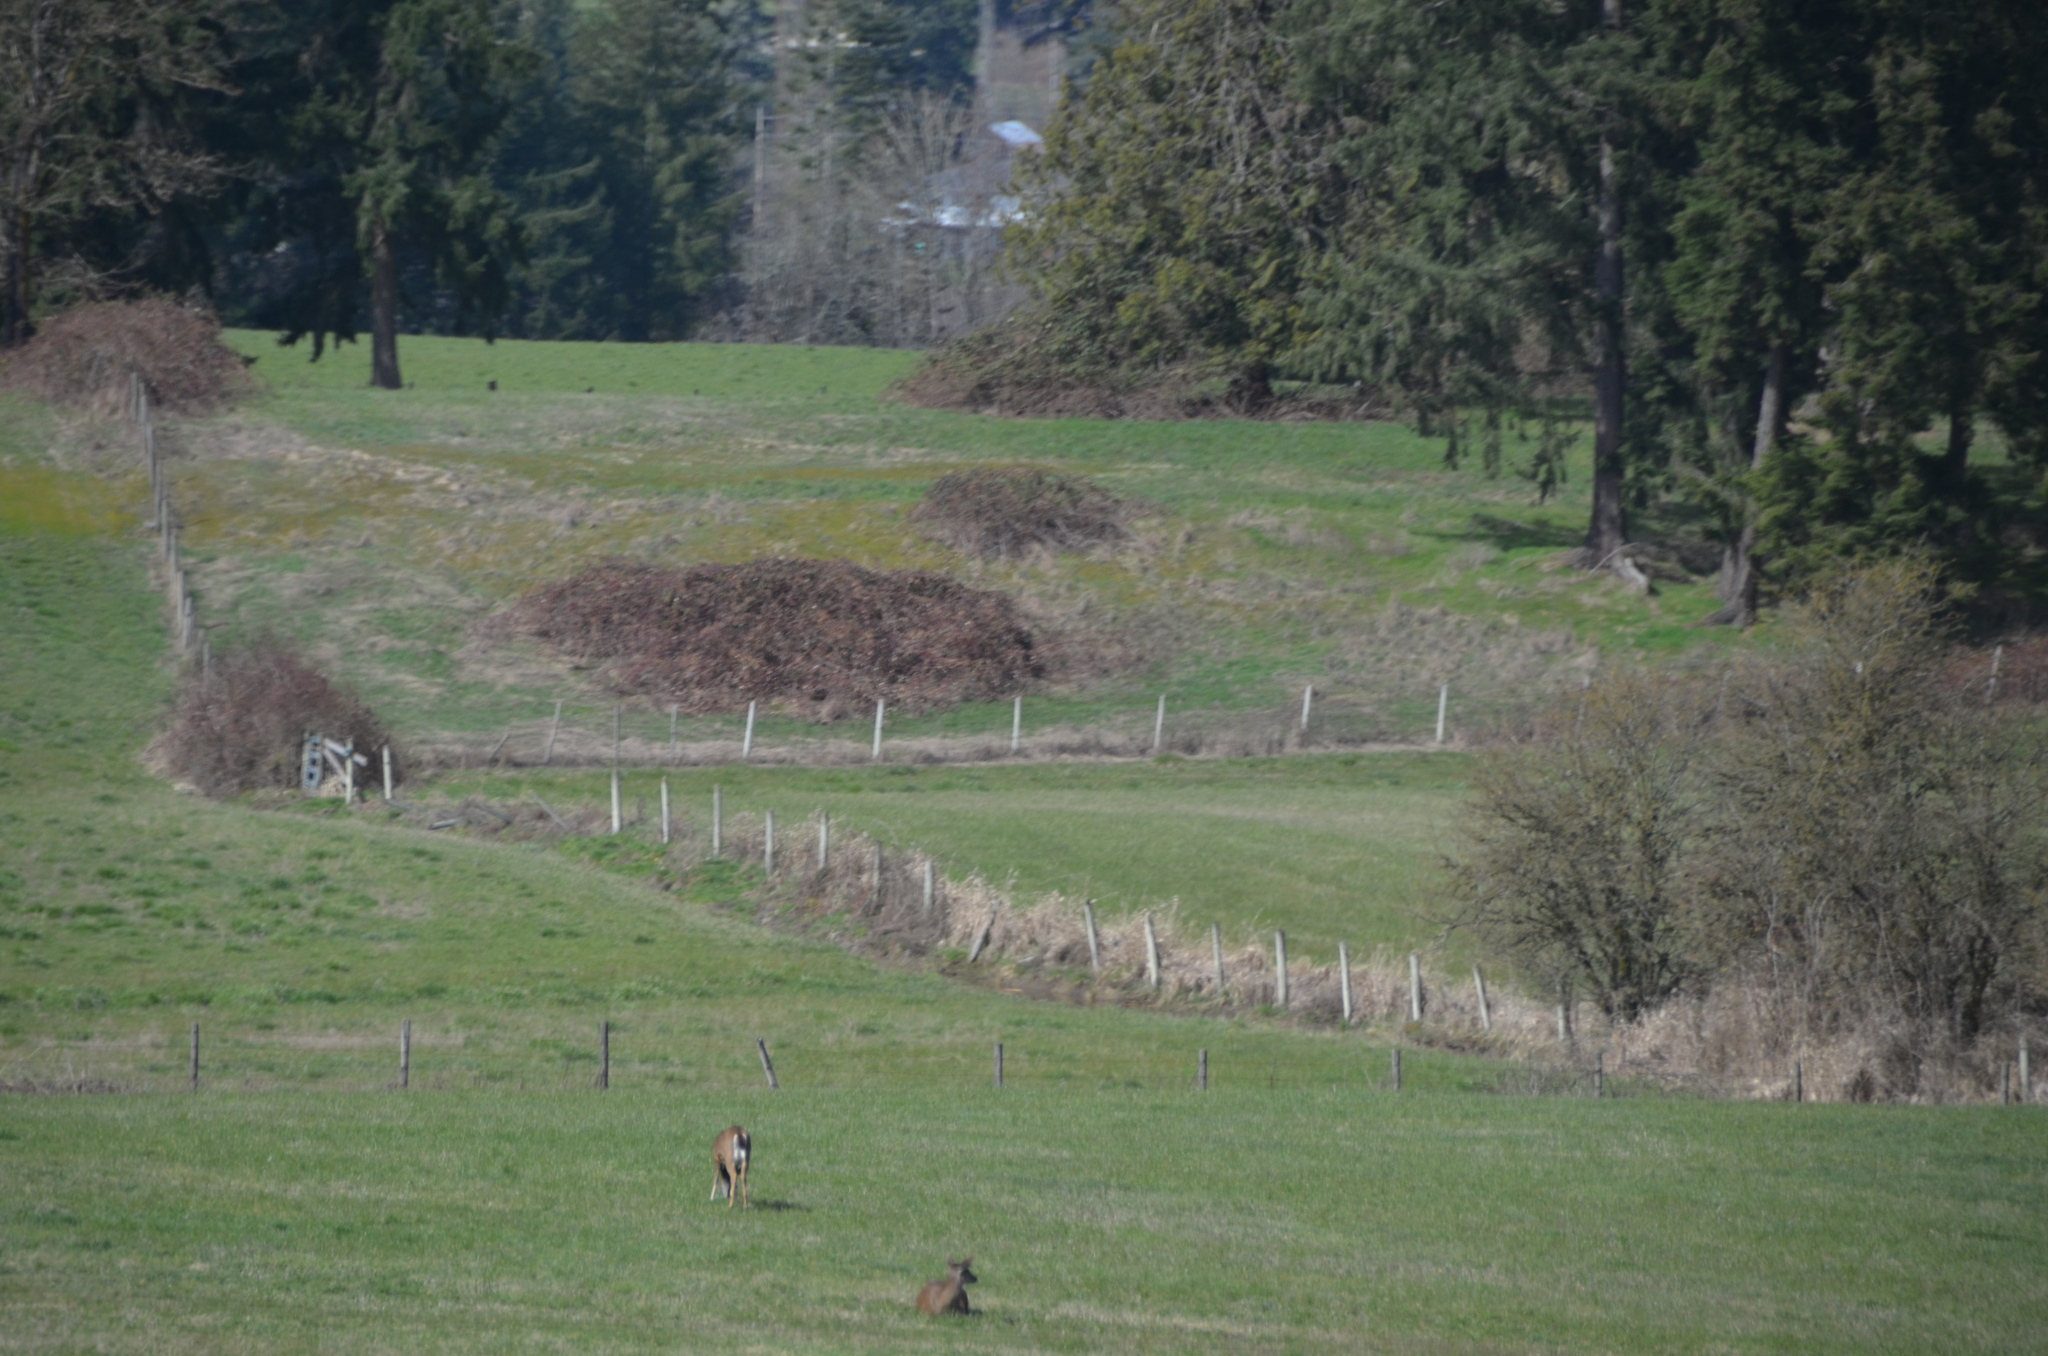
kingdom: Animalia
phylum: Chordata
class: Mammalia
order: Artiodactyla
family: Cervidae
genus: Odocoileus
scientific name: Odocoileus hemionus
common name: Mule deer
